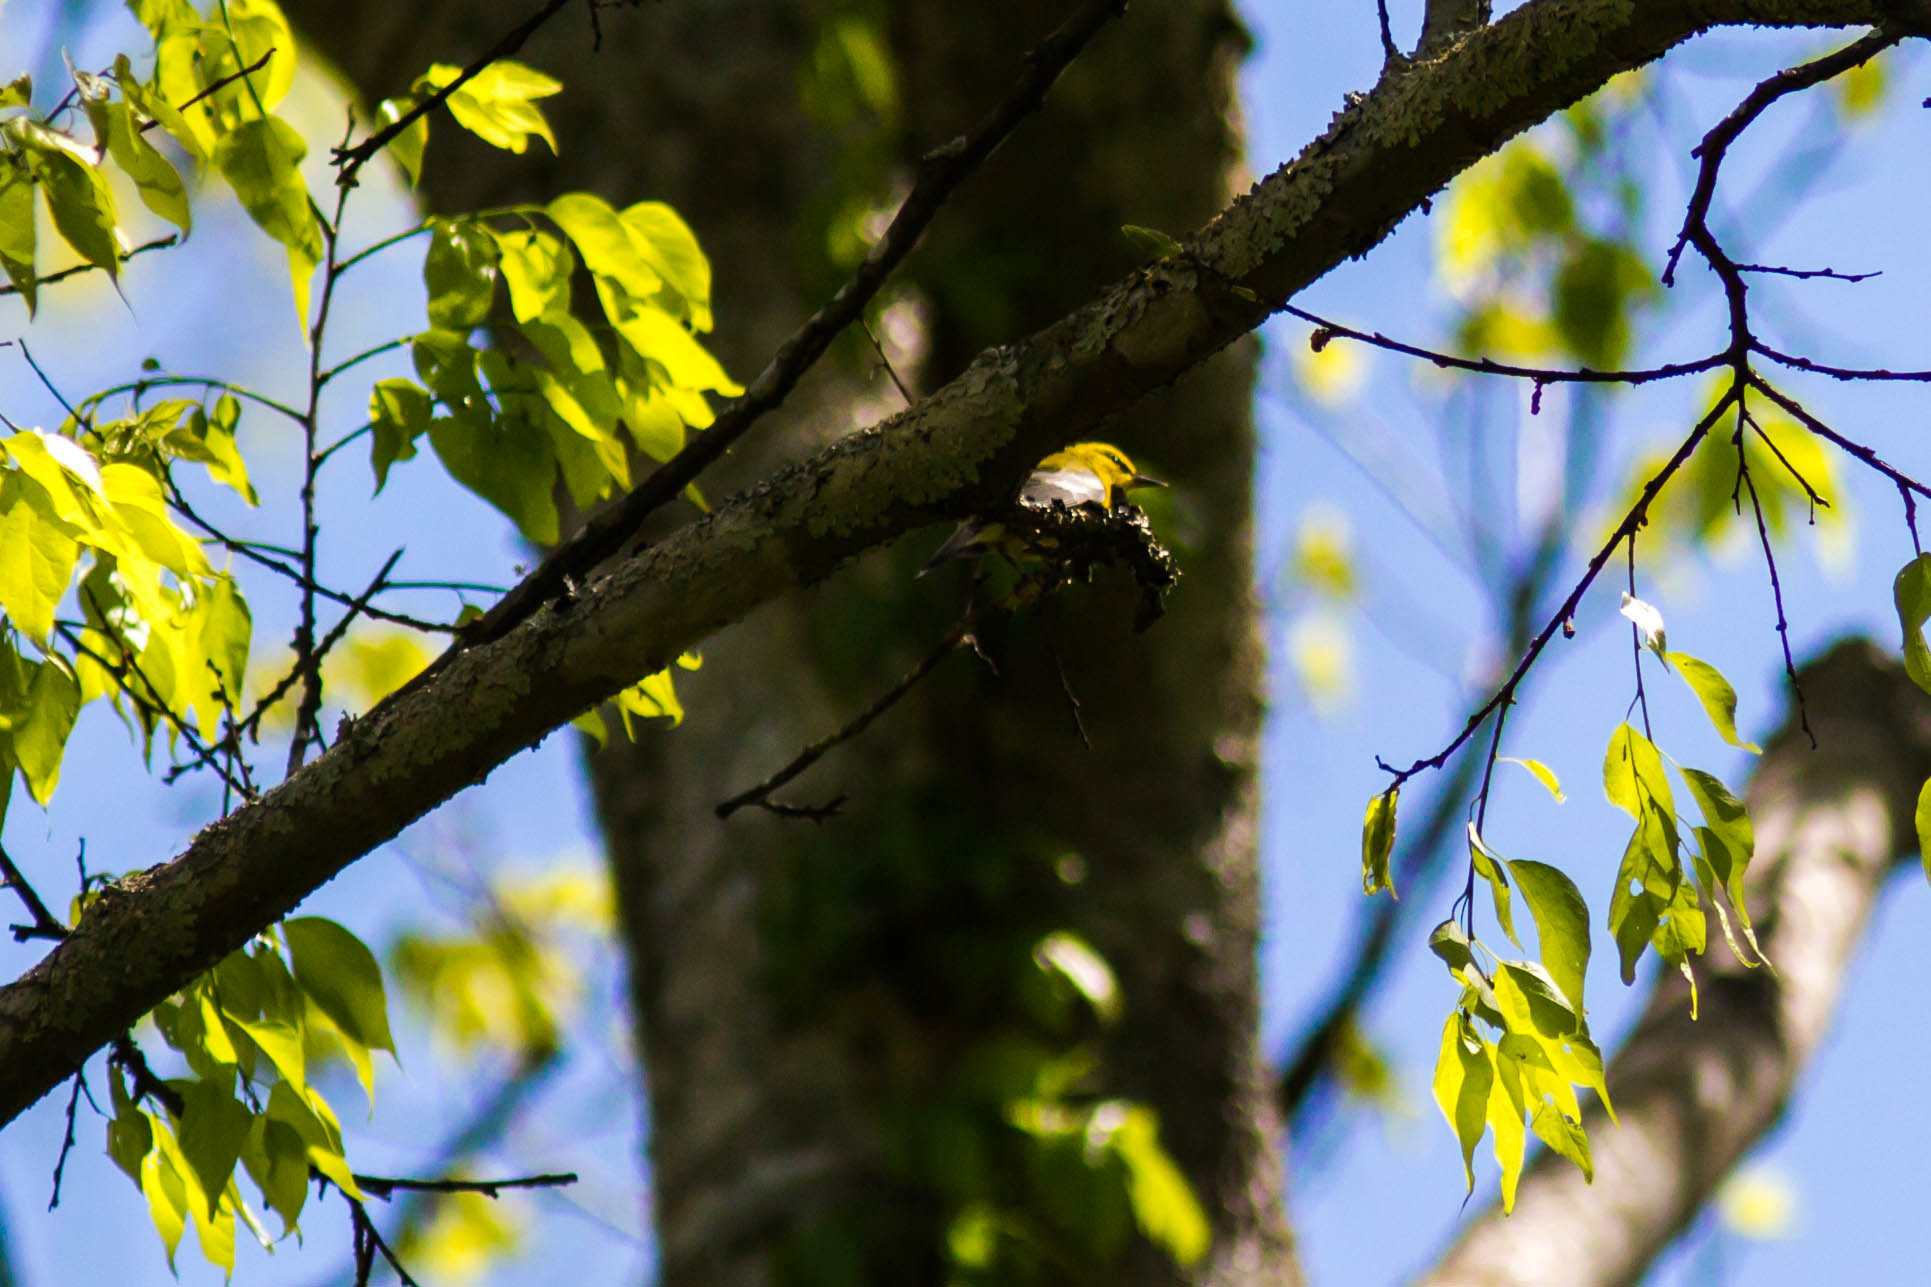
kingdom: Animalia
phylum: Chordata
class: Aves
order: Passeriformes
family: Parulidae
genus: Vermivora
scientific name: Vermivora cyanoptera
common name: Blue-winged warbler
